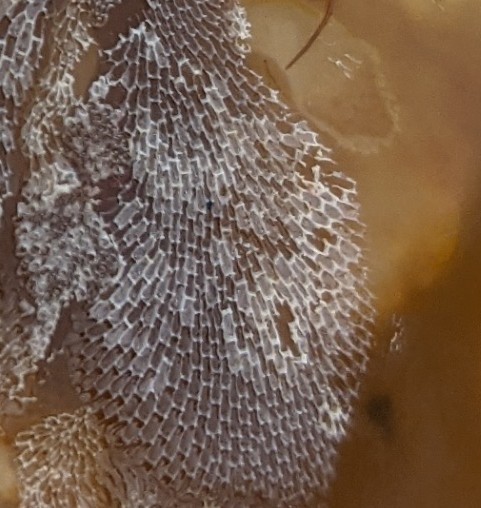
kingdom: Animalia
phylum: Bryozoa
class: Gymnolaemata
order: Cheilostomatida
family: Membraniporidae
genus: Membranipora
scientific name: Membranipora membranacea
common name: Sea mat
